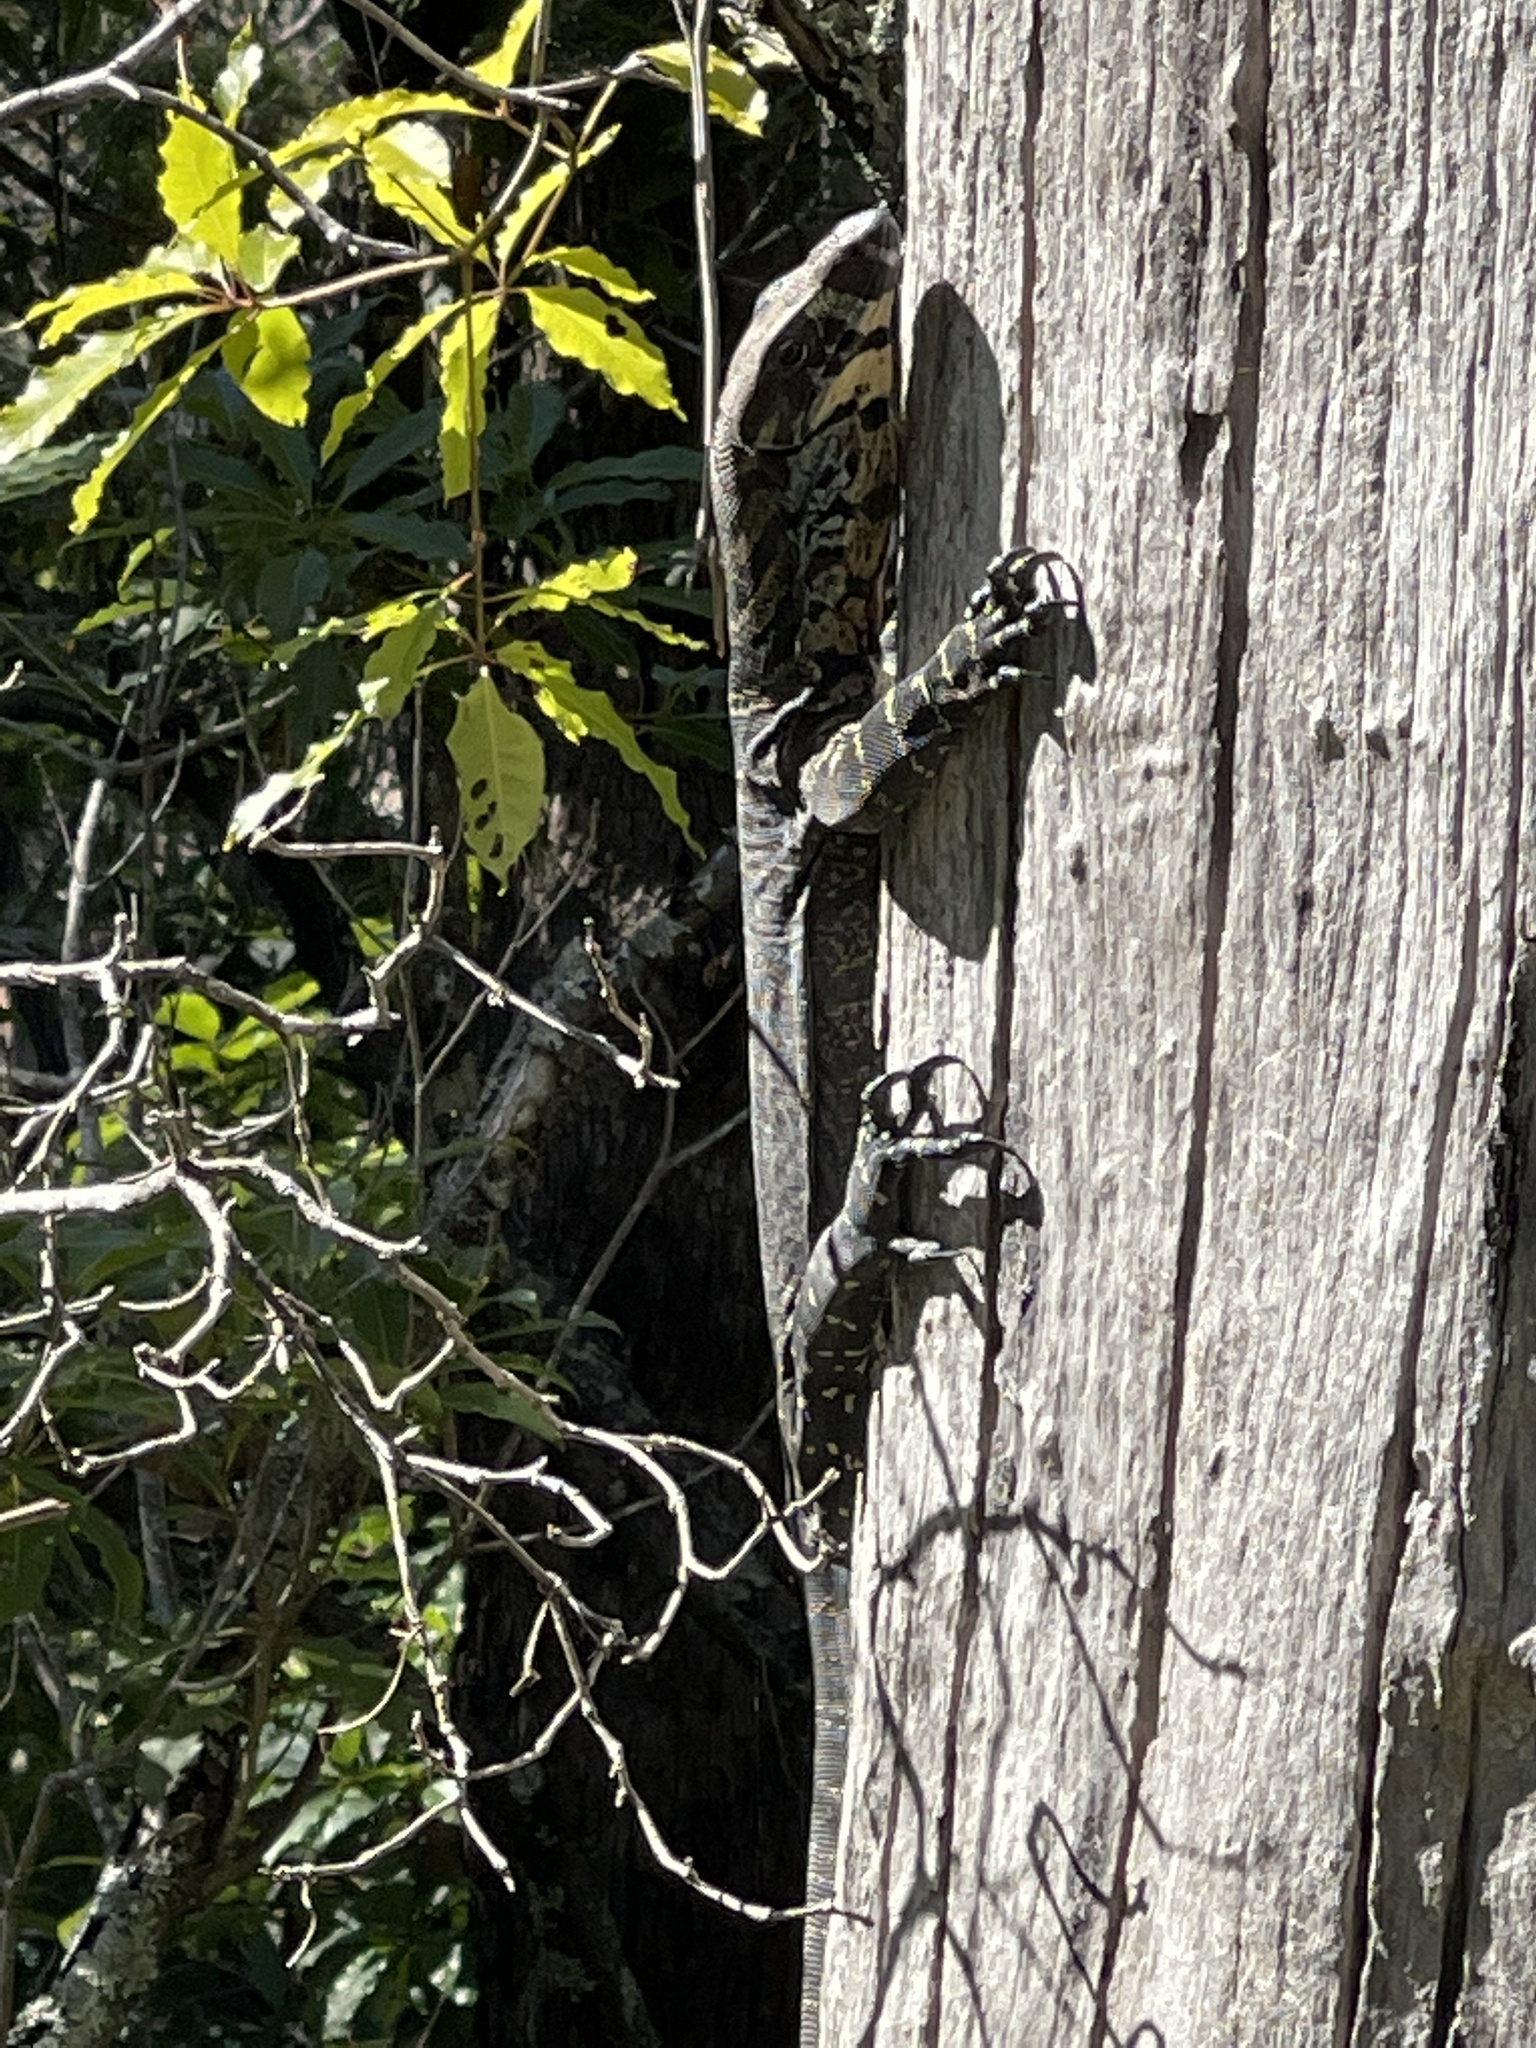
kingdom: Animalia
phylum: Chordata
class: Squamata
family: Varanidae
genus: Varanus
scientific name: Varanus varius
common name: Lace monitor
